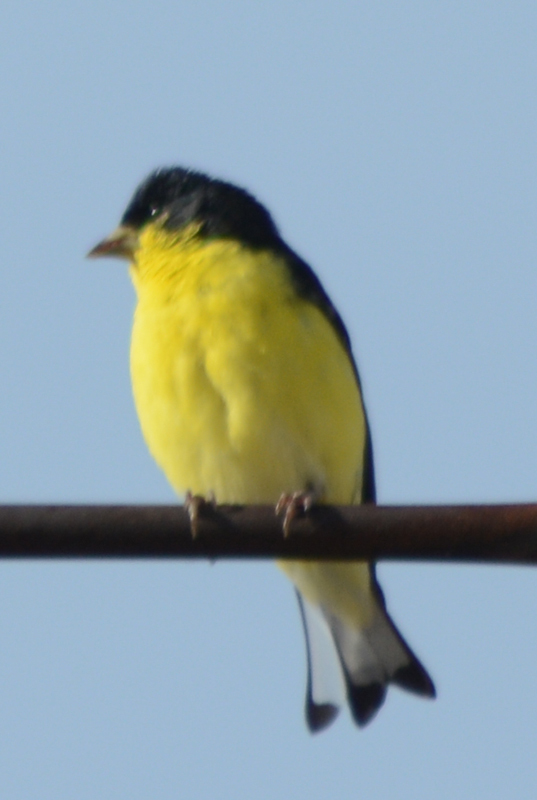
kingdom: Animalia
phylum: Chordata
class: Aves
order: Passeriformes
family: Fringillidae
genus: Spinus
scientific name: Spinus psaltria
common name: Lesser goldfinch
